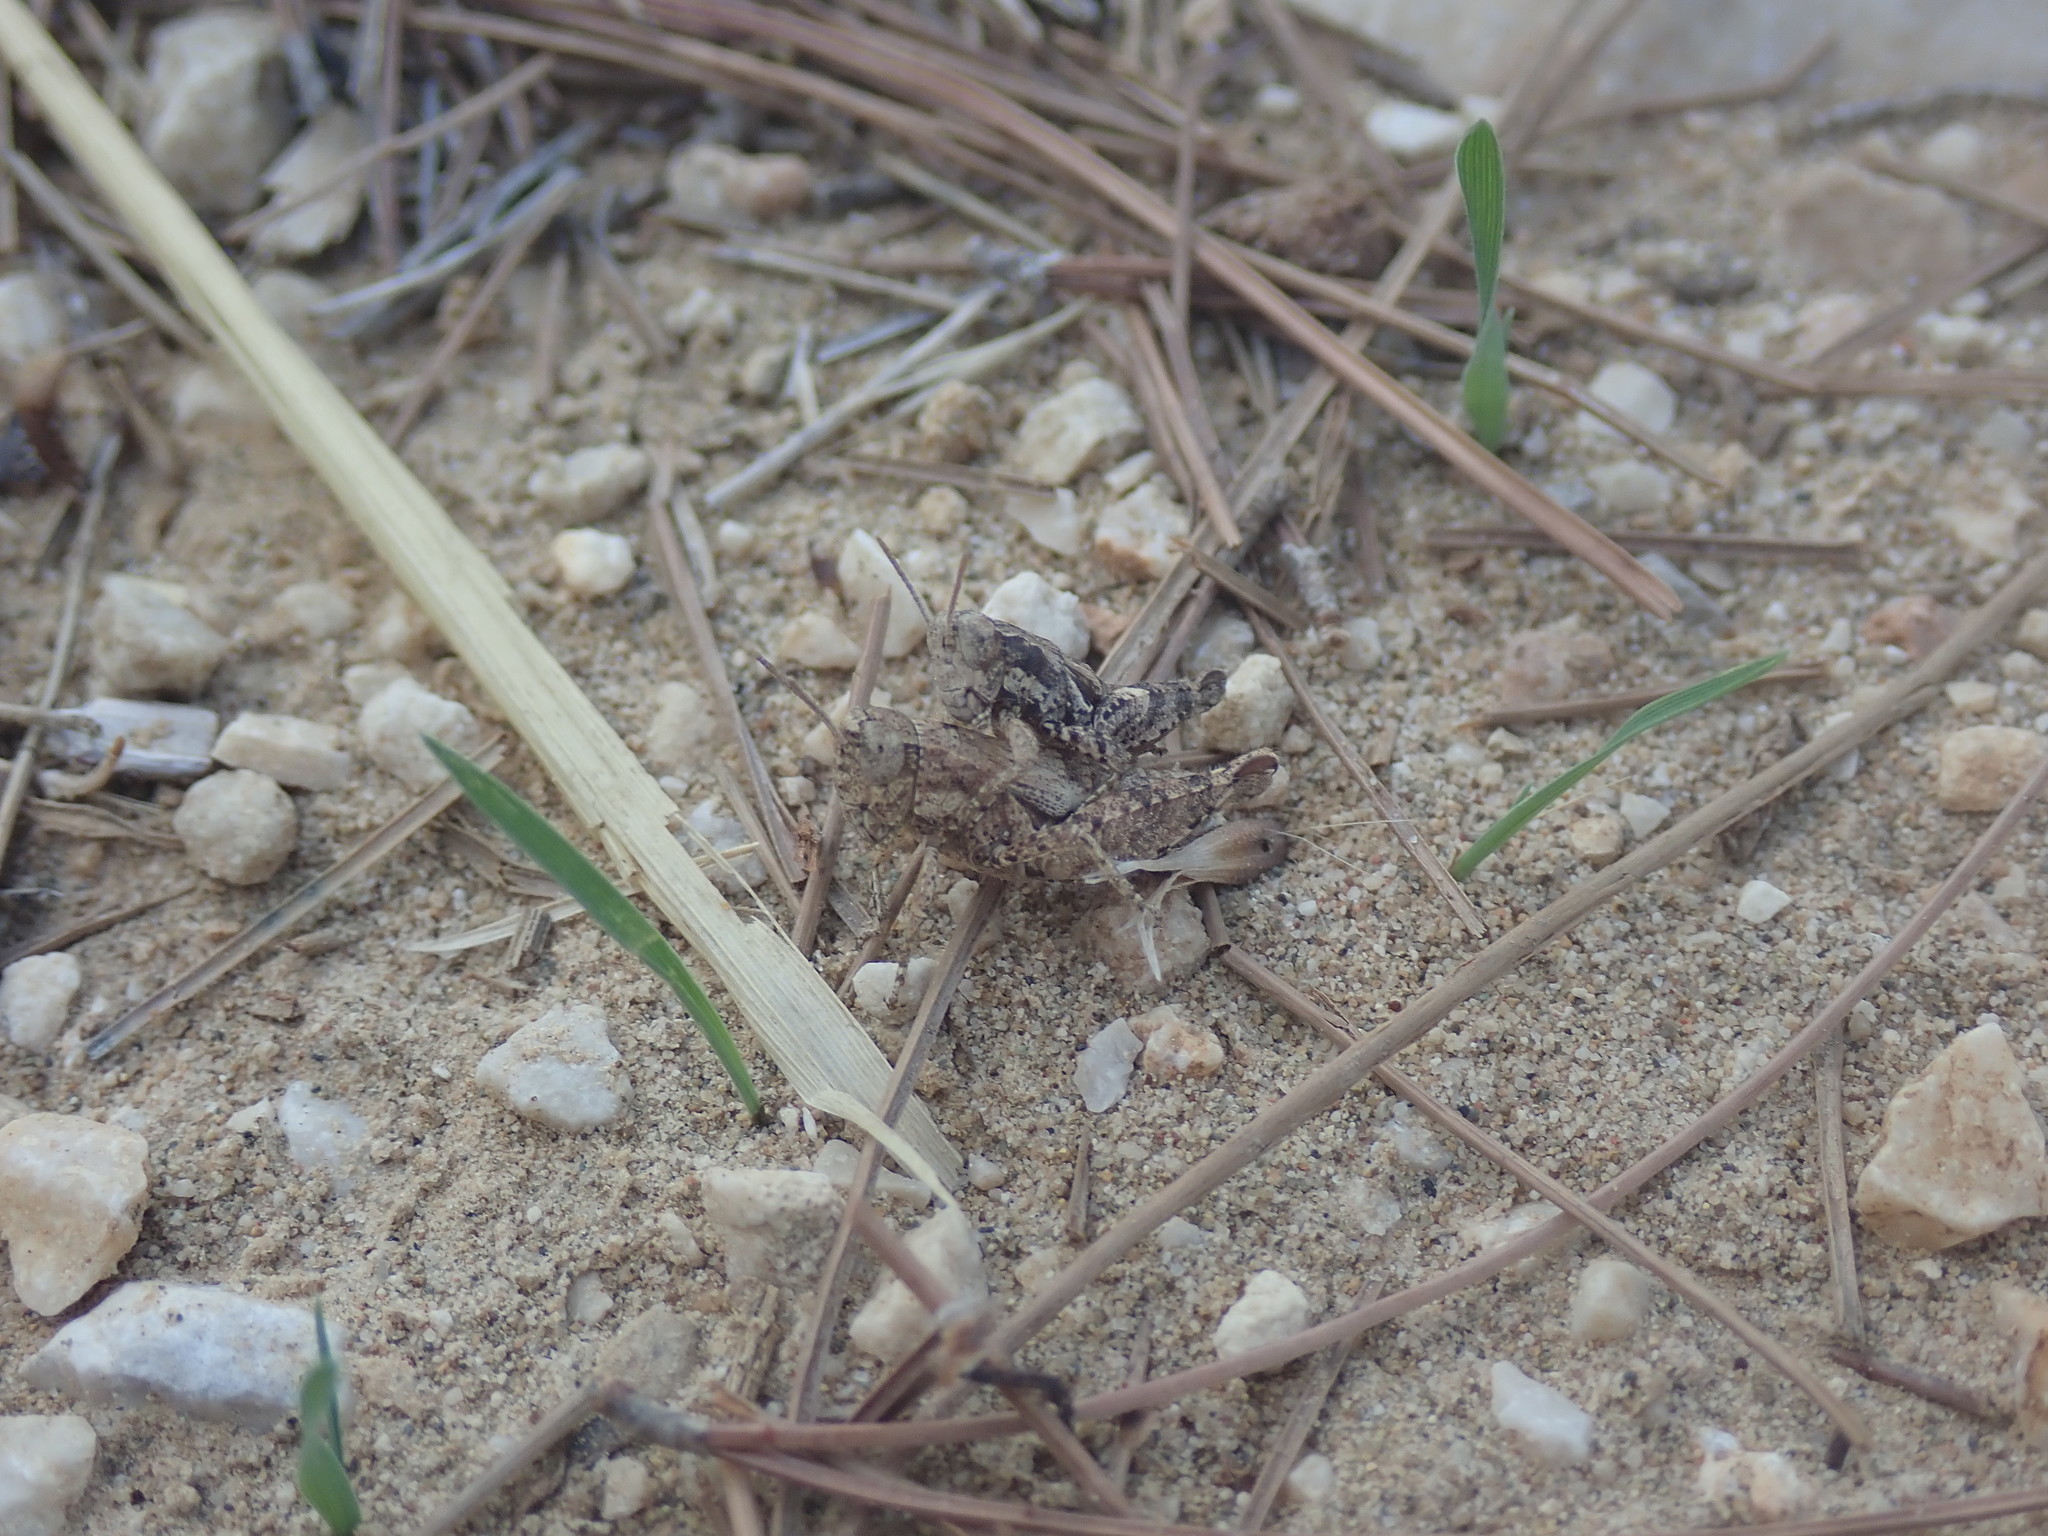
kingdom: Animalia
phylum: Arthropoda
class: Insecta
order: Orthoptera
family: Acrididae
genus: Pezotettix
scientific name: Pezotettix giornae
